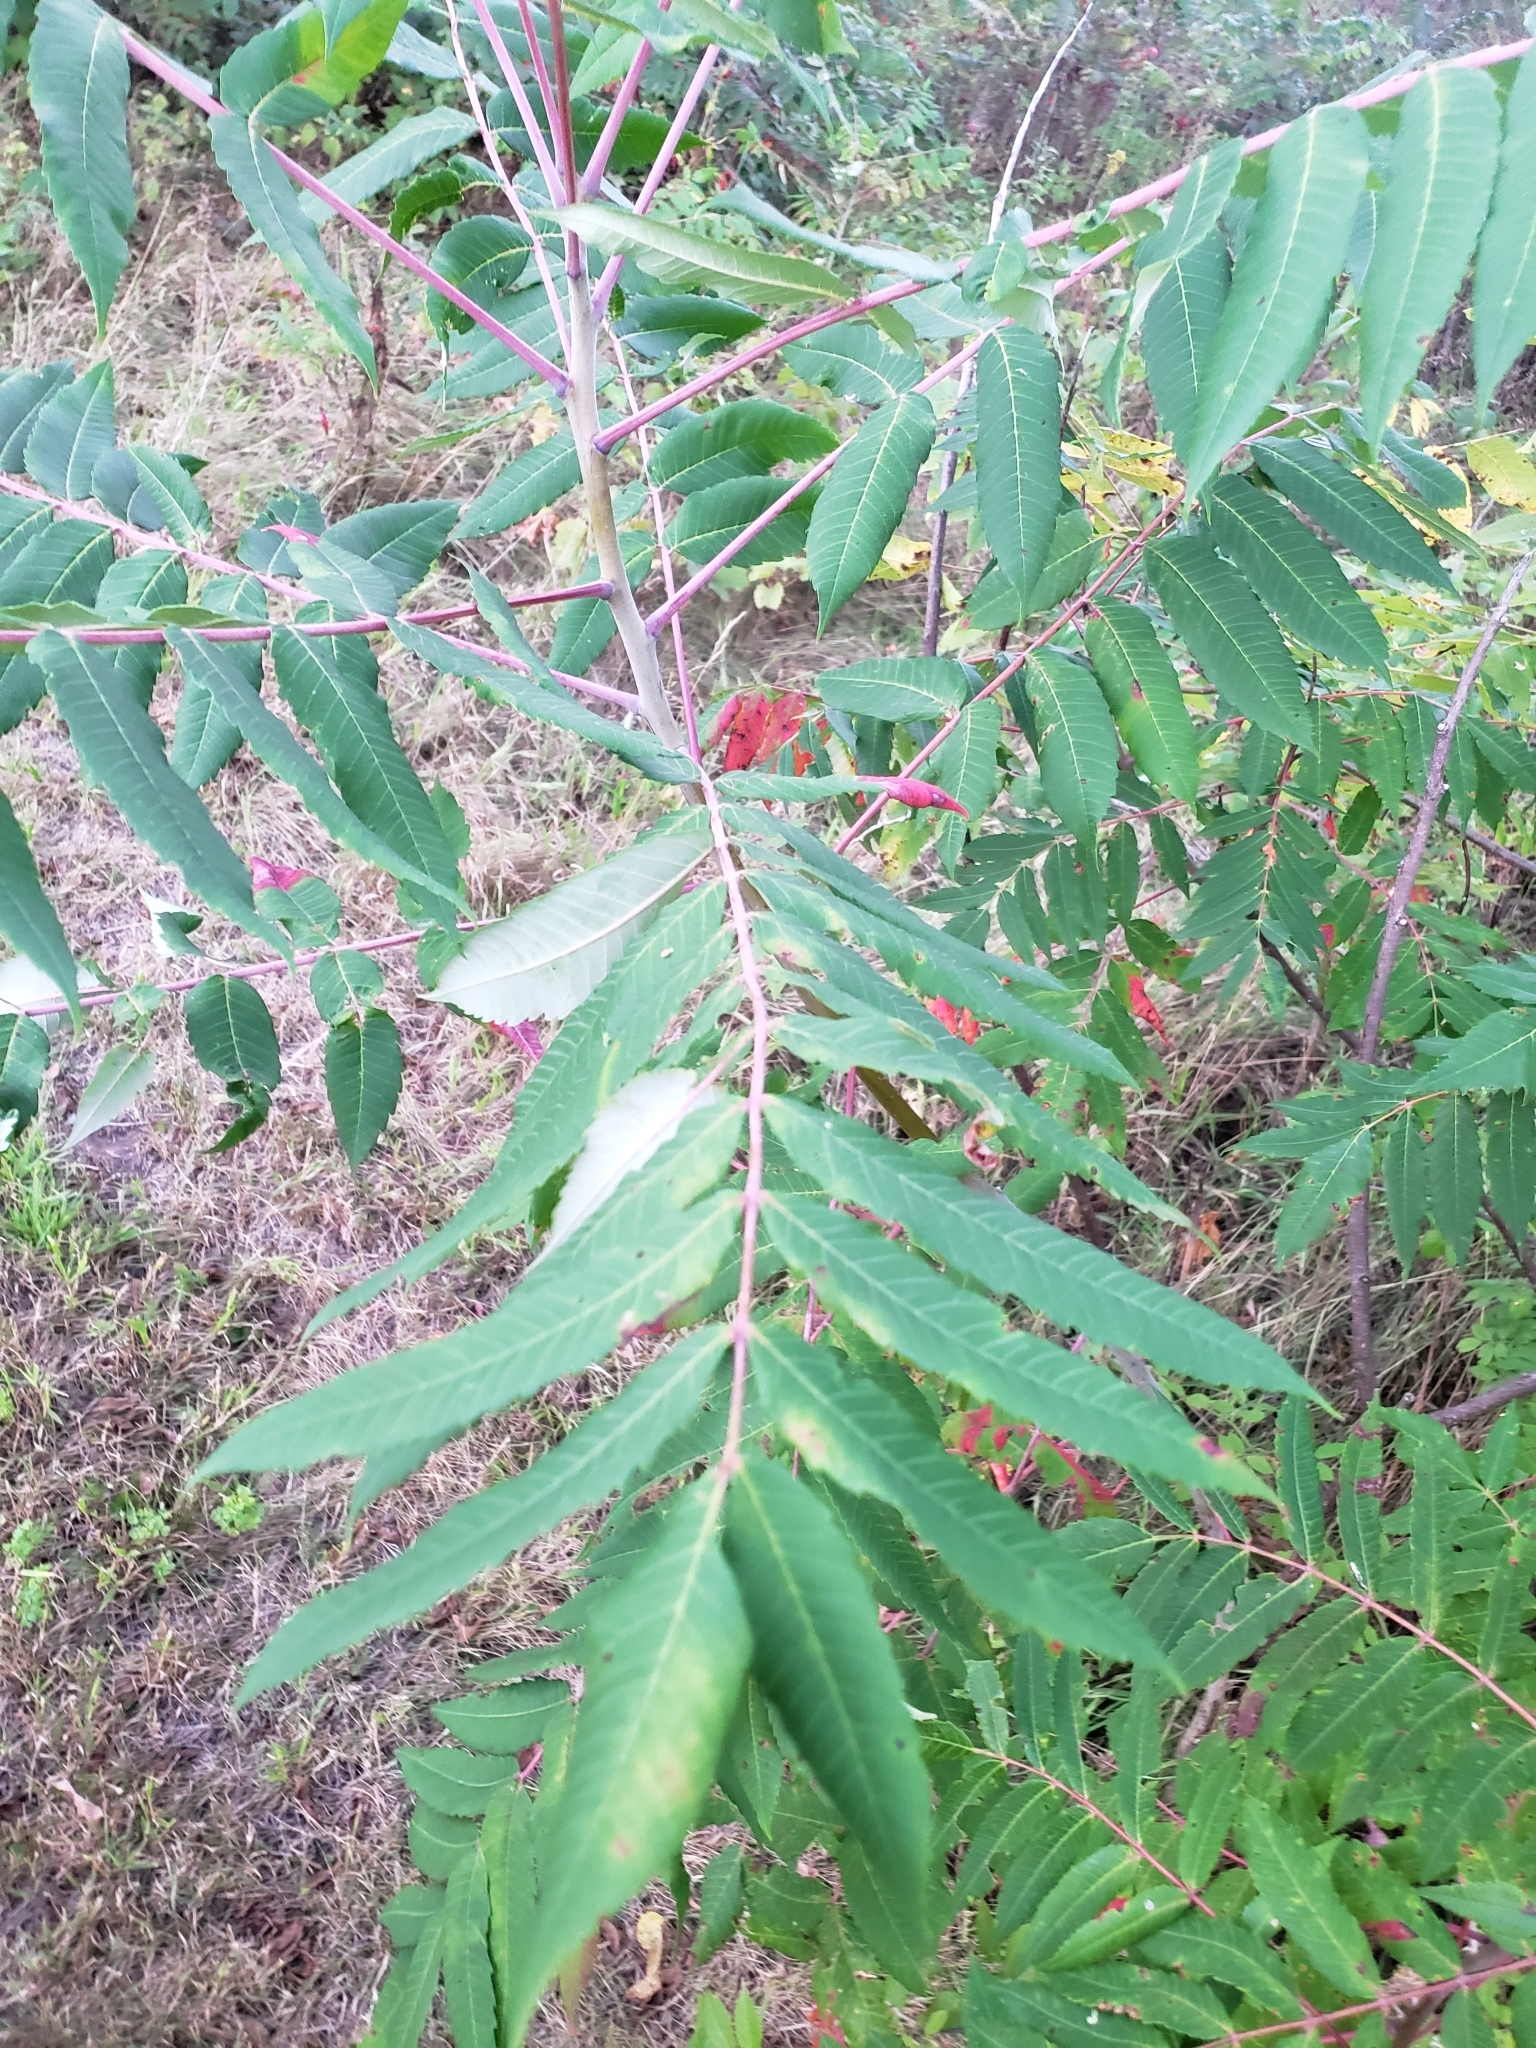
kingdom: Plantae
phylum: Tracheophyta
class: Magnoliopsida
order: Sapindales
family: Anacardiaceae
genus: Rhus
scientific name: Rhus glabra
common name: Scarlet sumac
